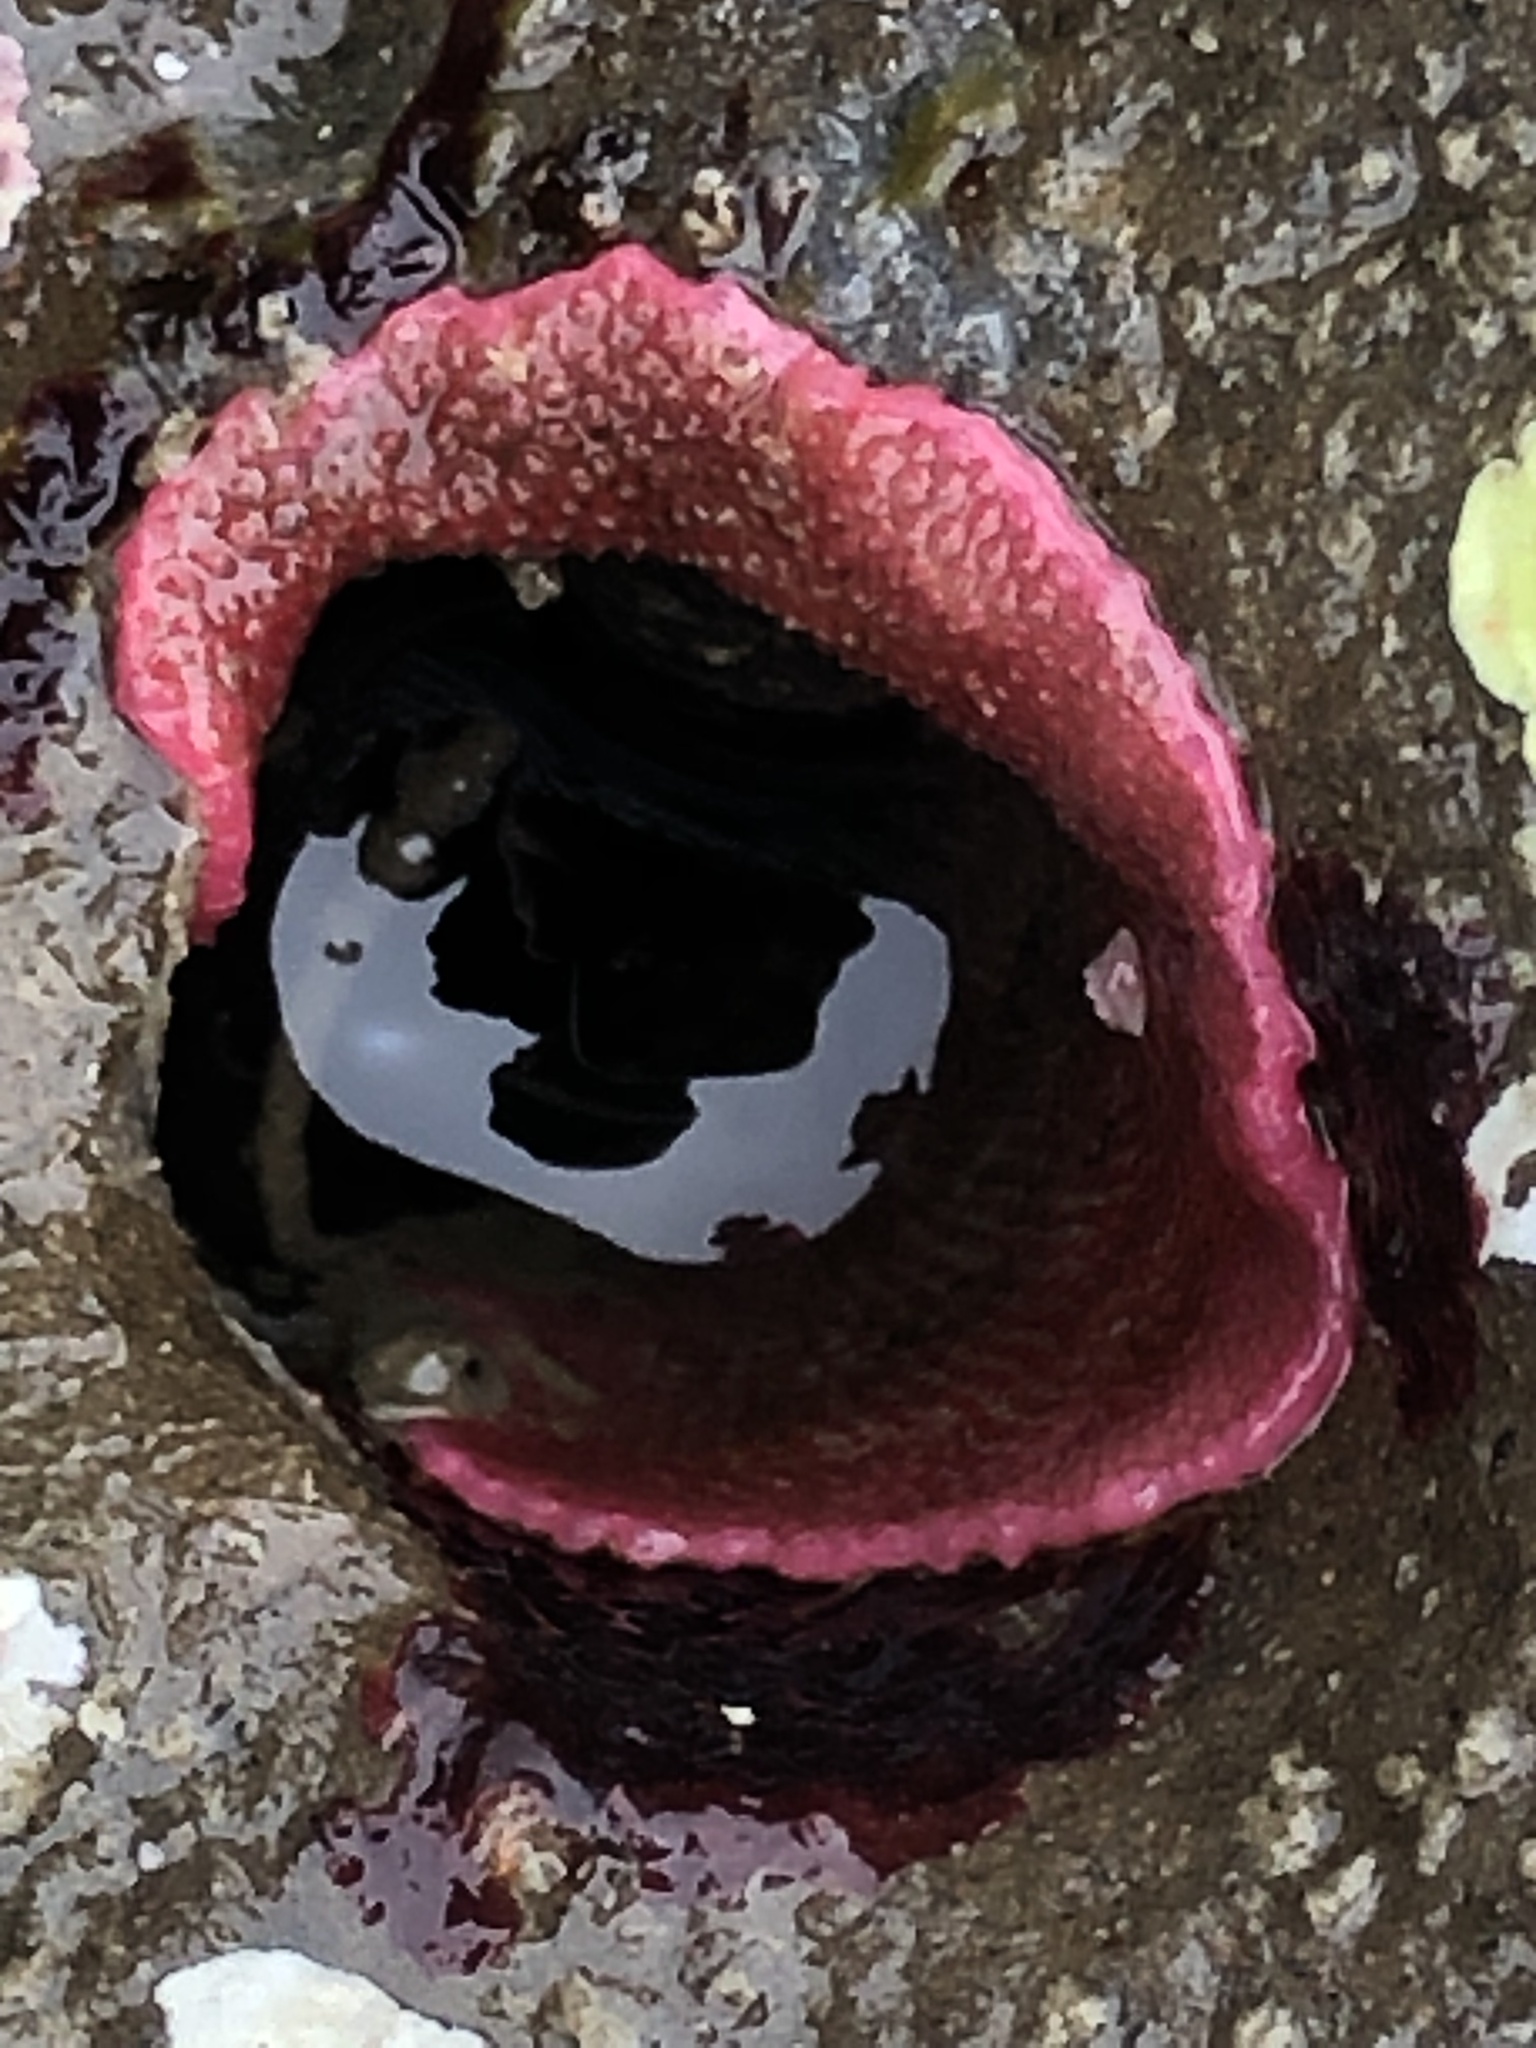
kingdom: Animalia
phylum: Bryozoa
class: Gymnolaemata
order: Cheilostomatida
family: Eurystomellidae
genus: Integripelta
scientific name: Integripelta bilabiata
